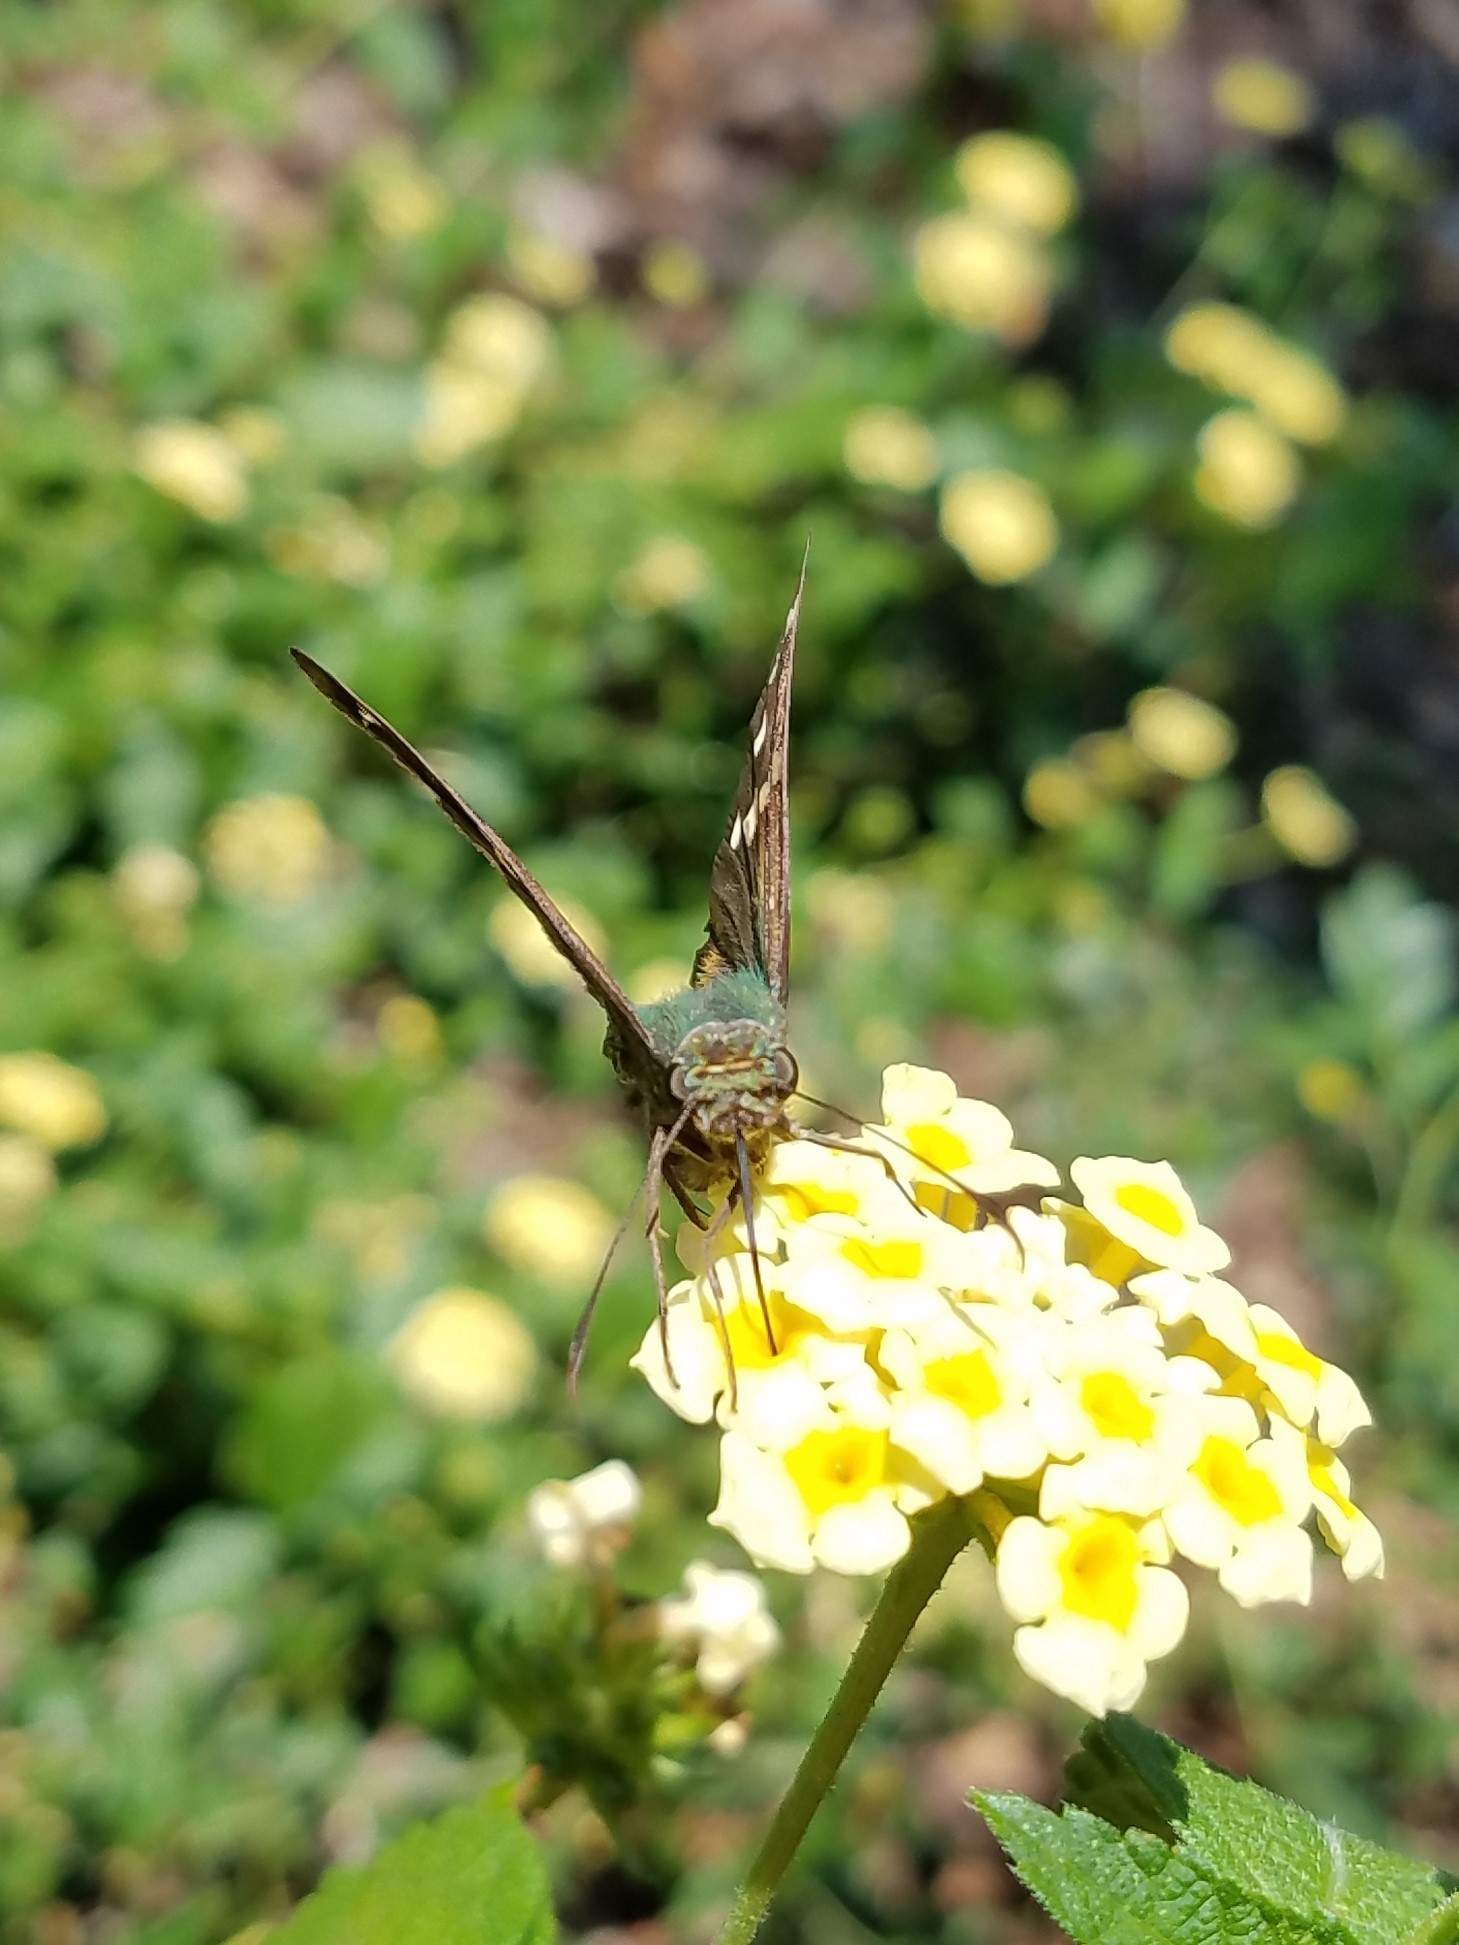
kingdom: Animalia
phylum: Arthropoda
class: Insecta
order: Lepidoptera
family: Hesperiidae
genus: Urbanus
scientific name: Urbanus proteus
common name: Long-tailed skipper
